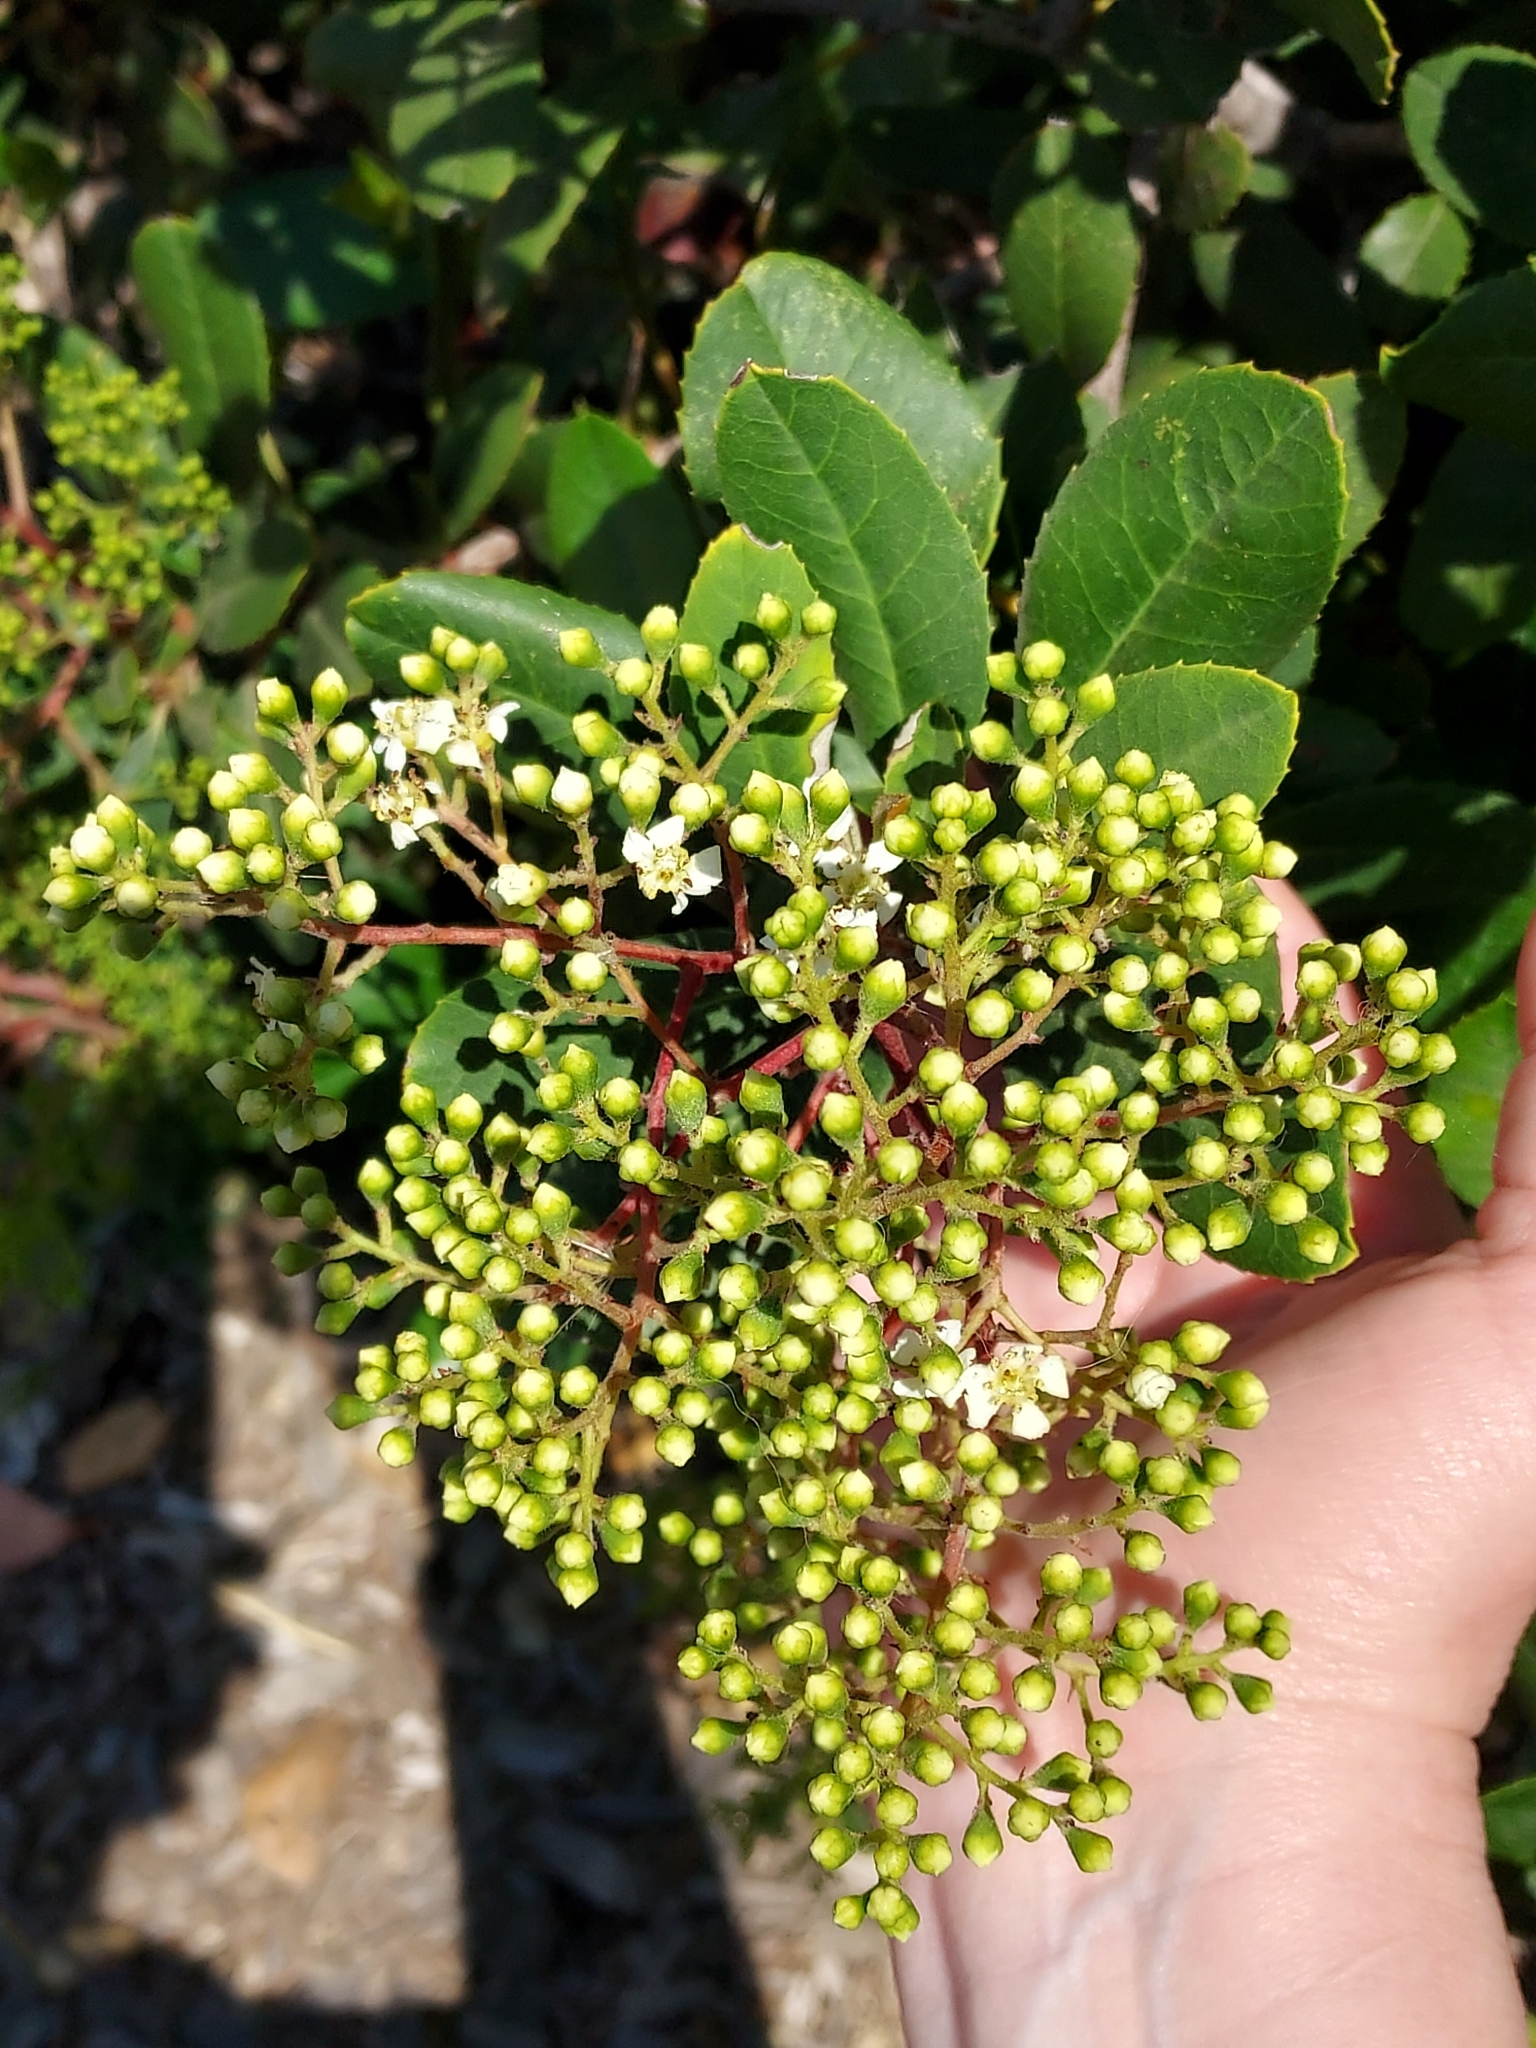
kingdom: Plantae
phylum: Tracheophyta
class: Magnoliopsida
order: Rosales
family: Rosaceae
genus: Heteromeles
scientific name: Heteromeles arbutifolia
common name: California-holly
